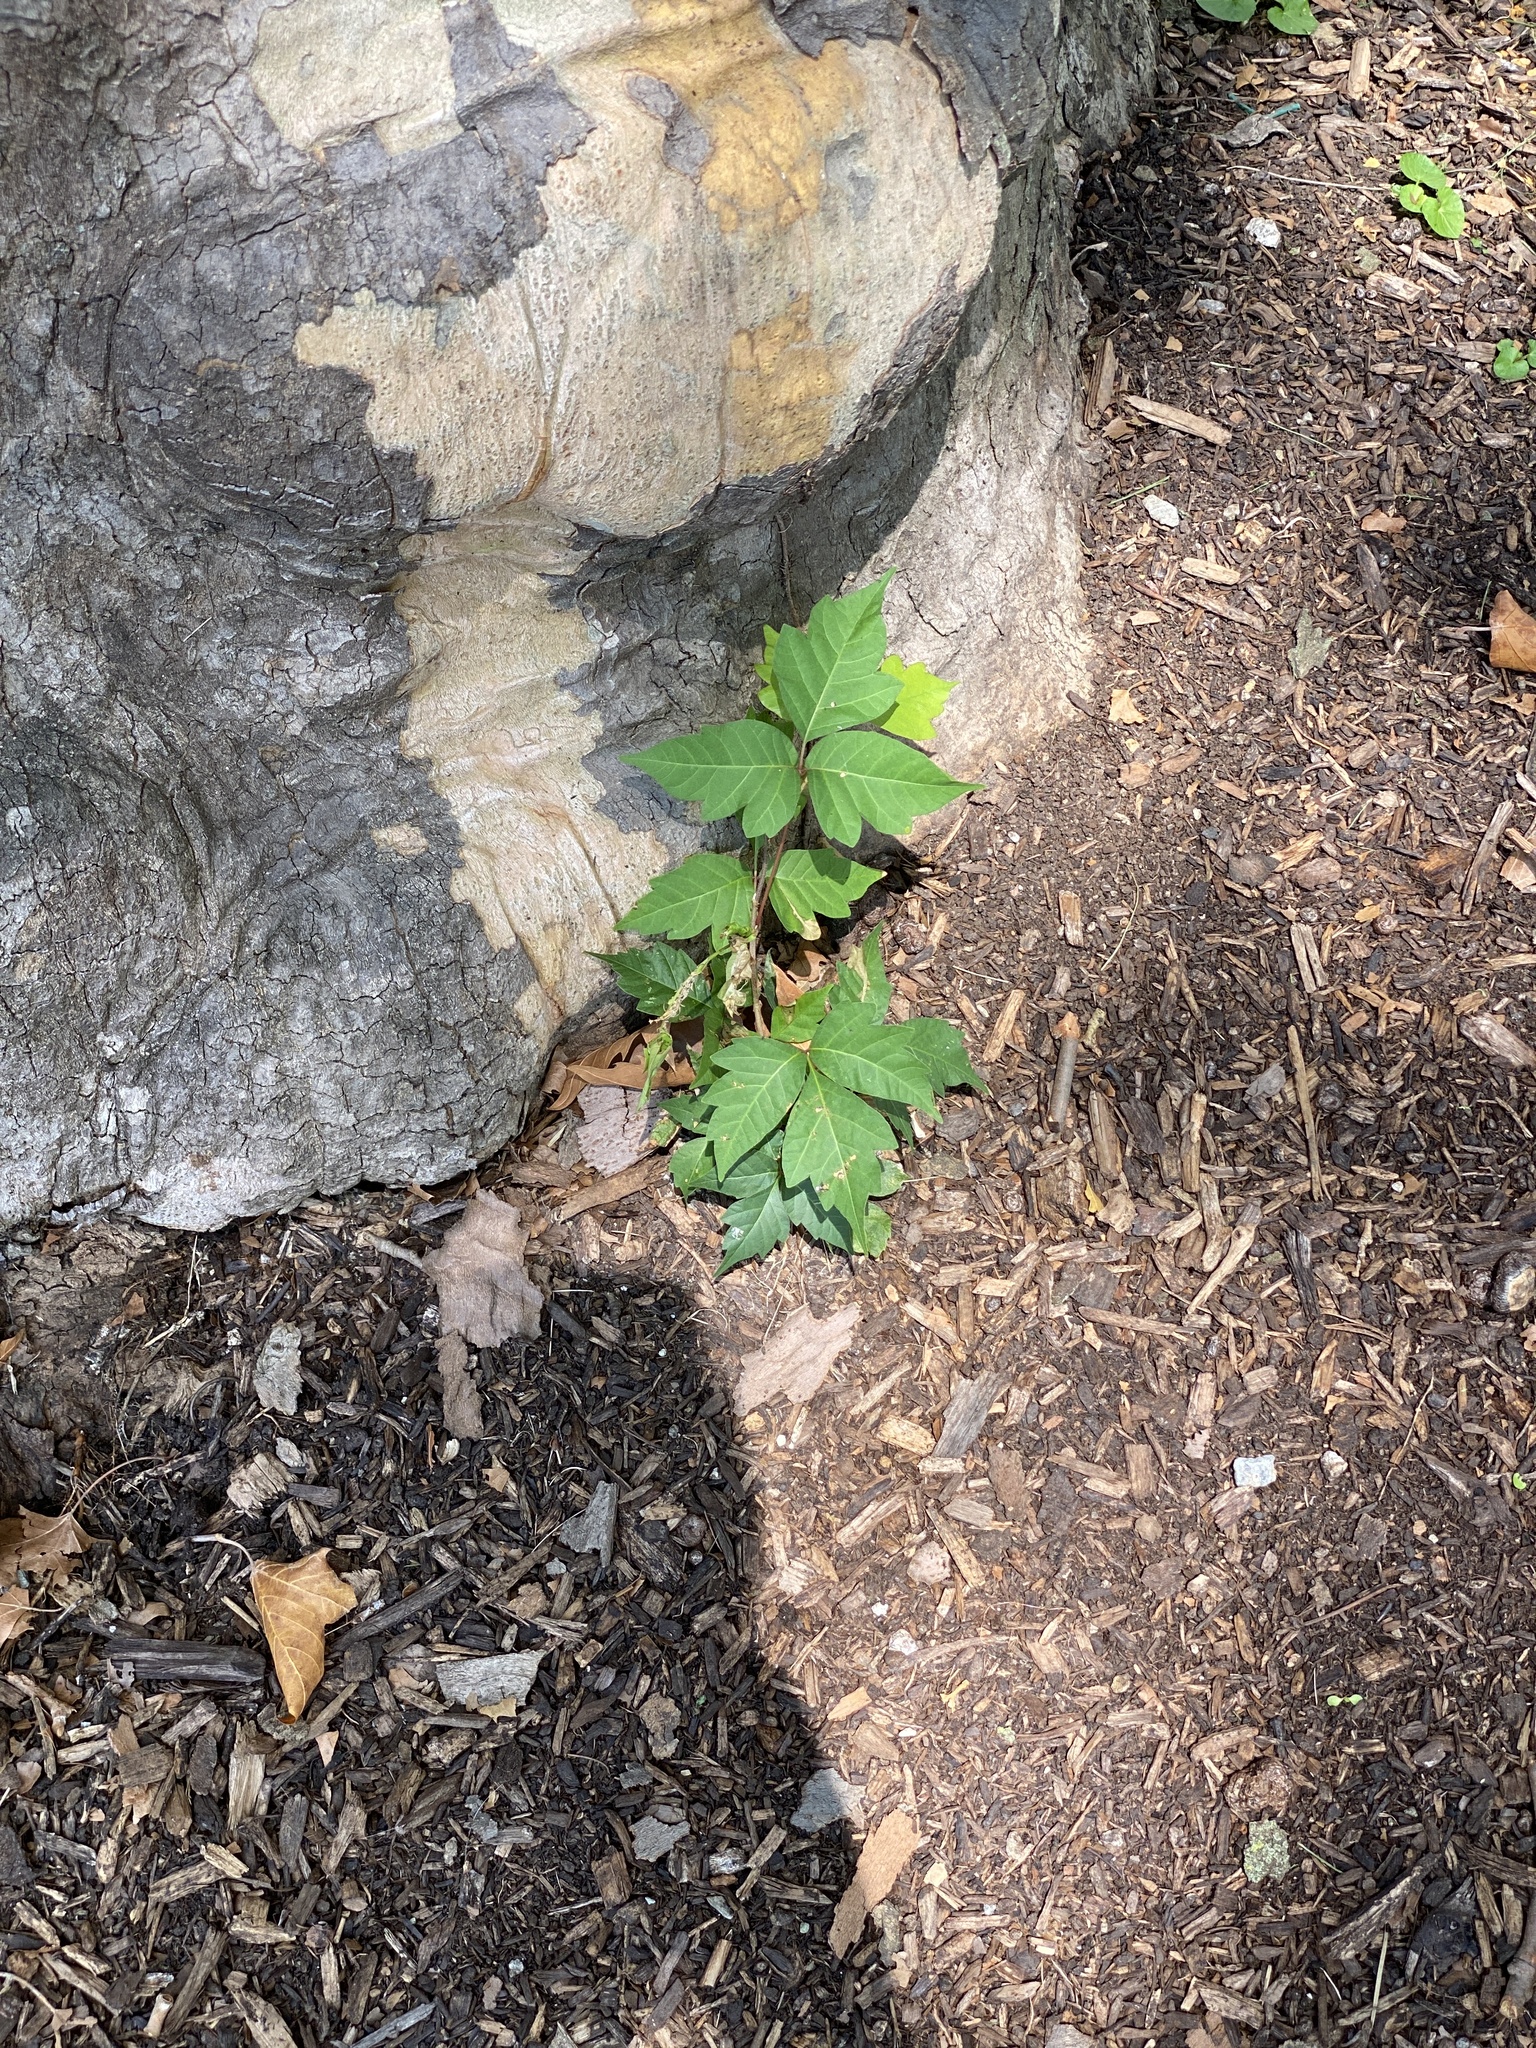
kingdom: Plantae
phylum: Tracheophyta
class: Magnoliopsida
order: Sapindales
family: Anacardiaceae
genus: Toxicodendron
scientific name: Toxicodendron radicans
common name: Poison ivy
